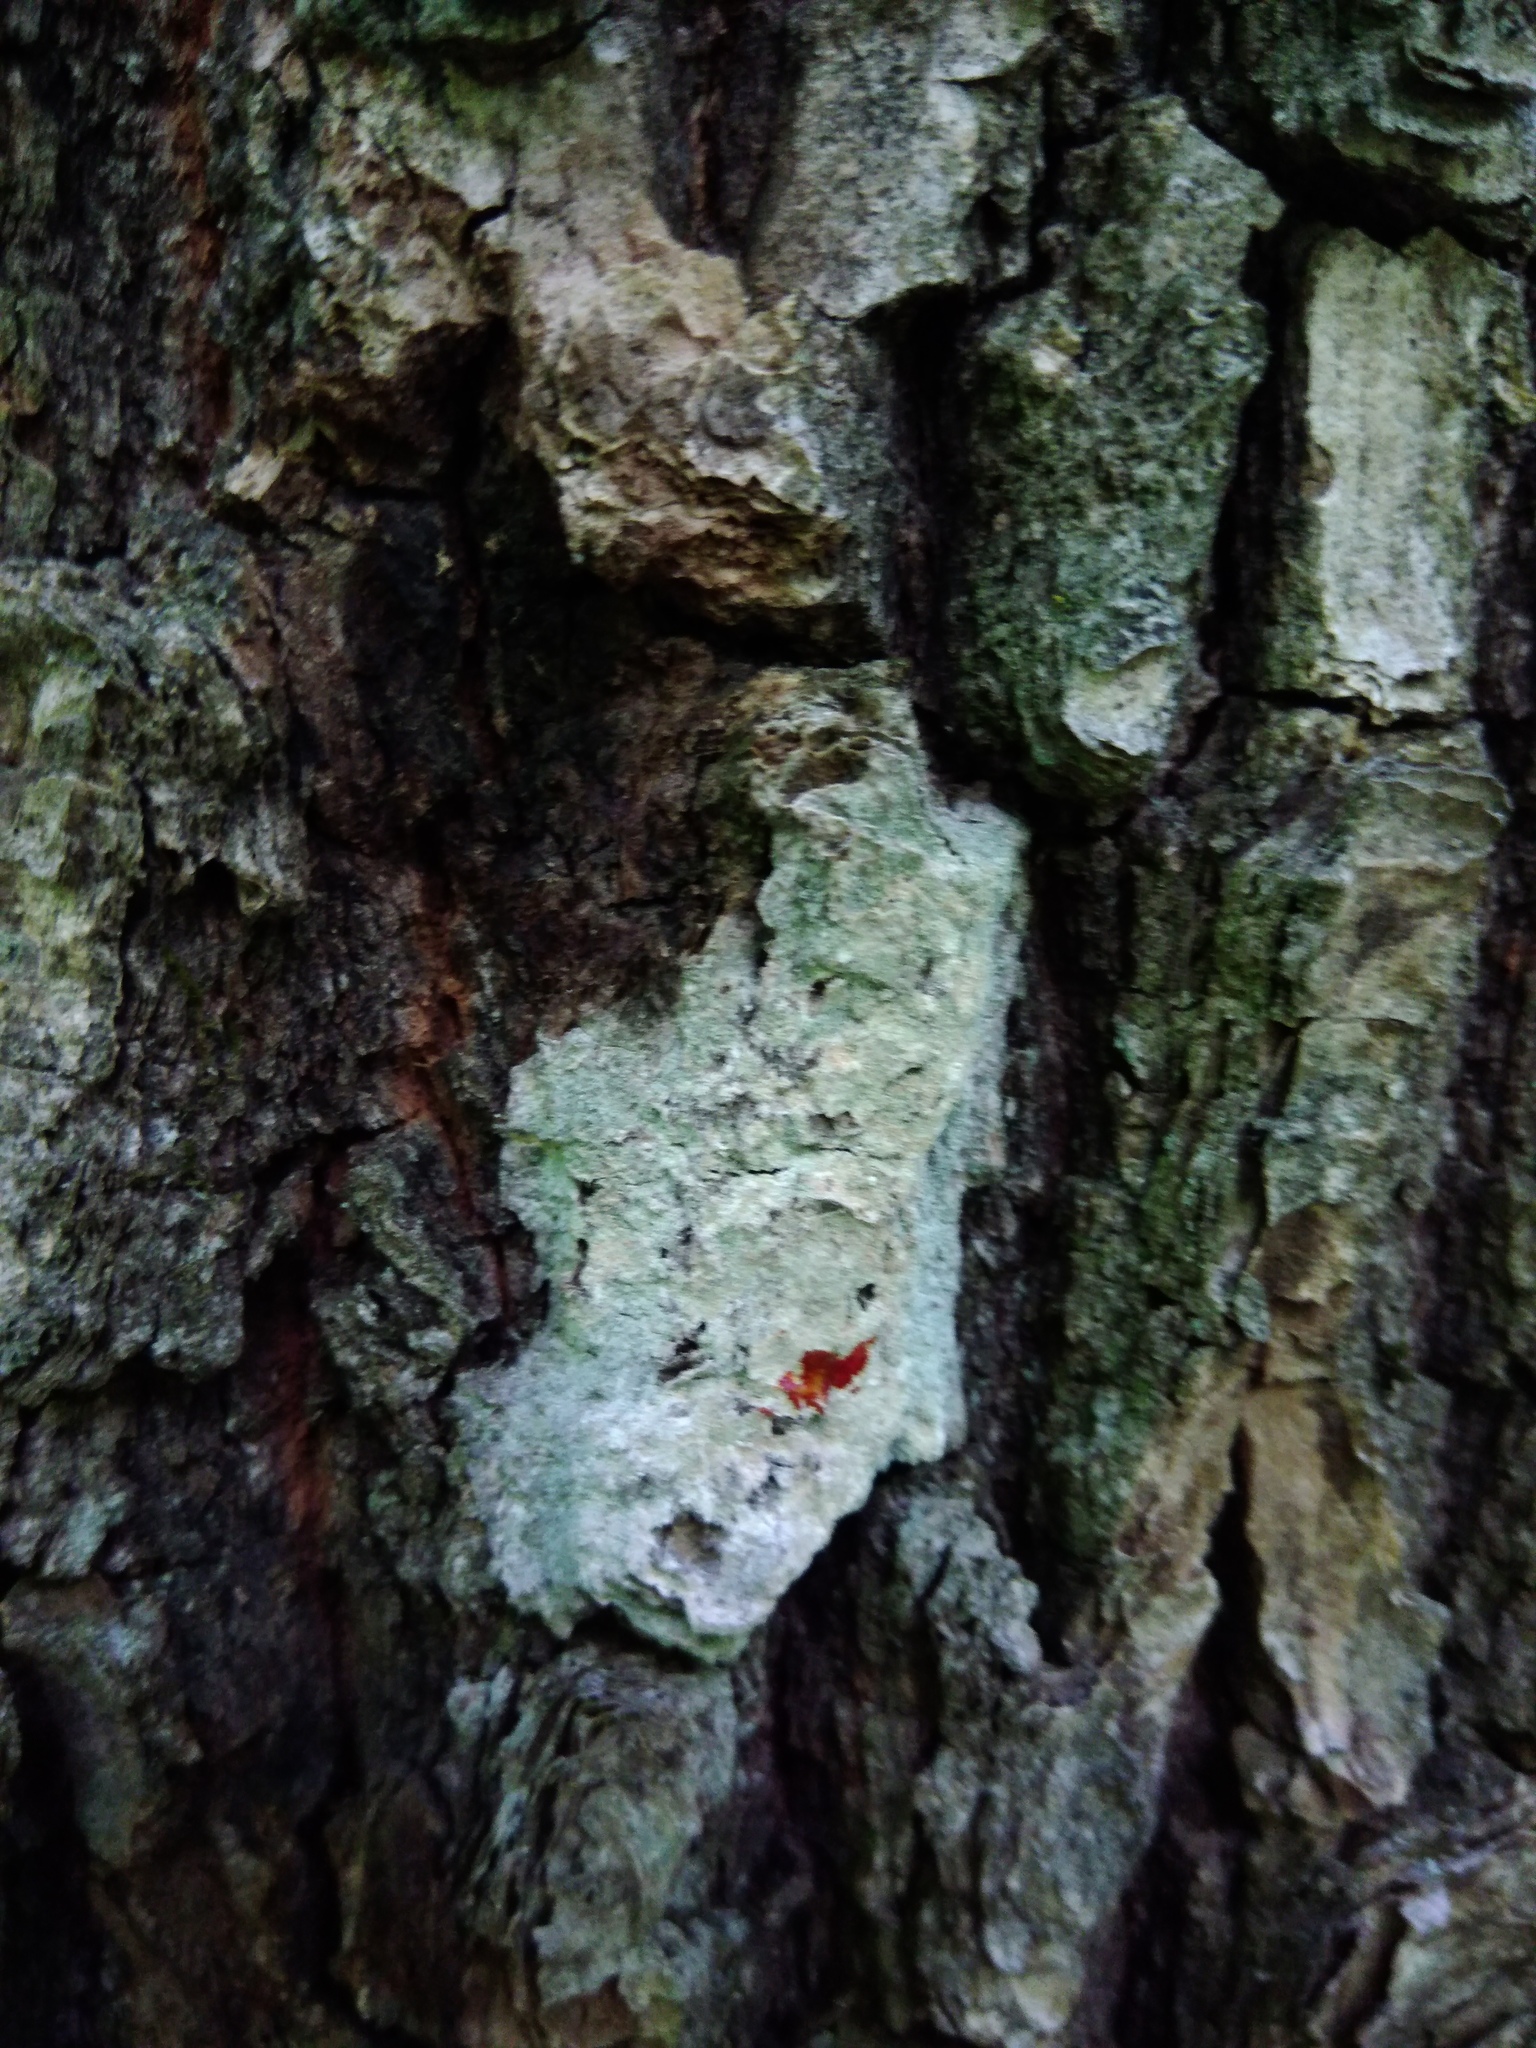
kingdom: Fungi
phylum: Ascomycota
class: Lecanoromycetes
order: Ostropales
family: Phlyctidaceae
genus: Phlyctis
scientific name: Phlyctis argena
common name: Whitewash lichen
